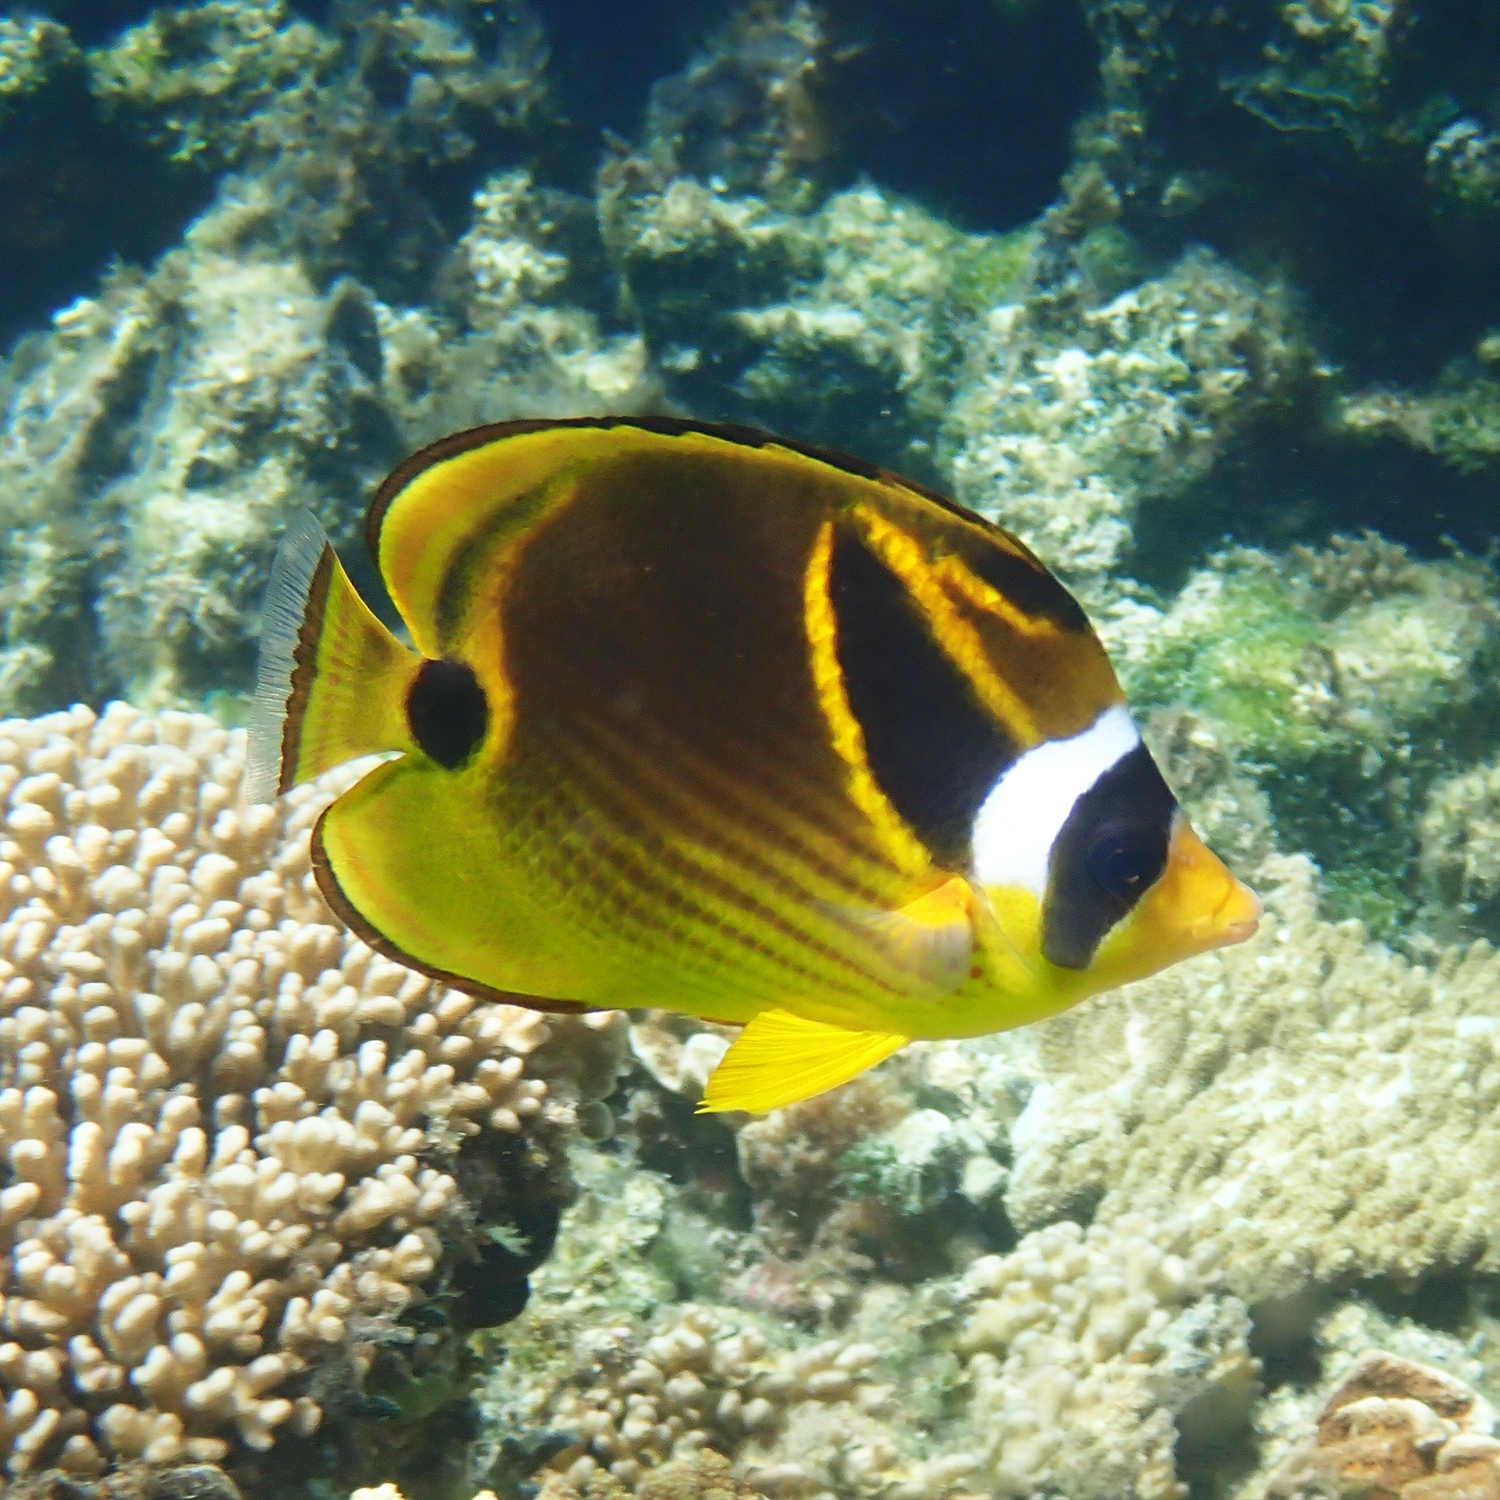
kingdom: Animalia
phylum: Chordata
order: Perciformes
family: Chaetodontidae
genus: Chaetodon
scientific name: Chaetodon lunula
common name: Raccoon butterflyfish
